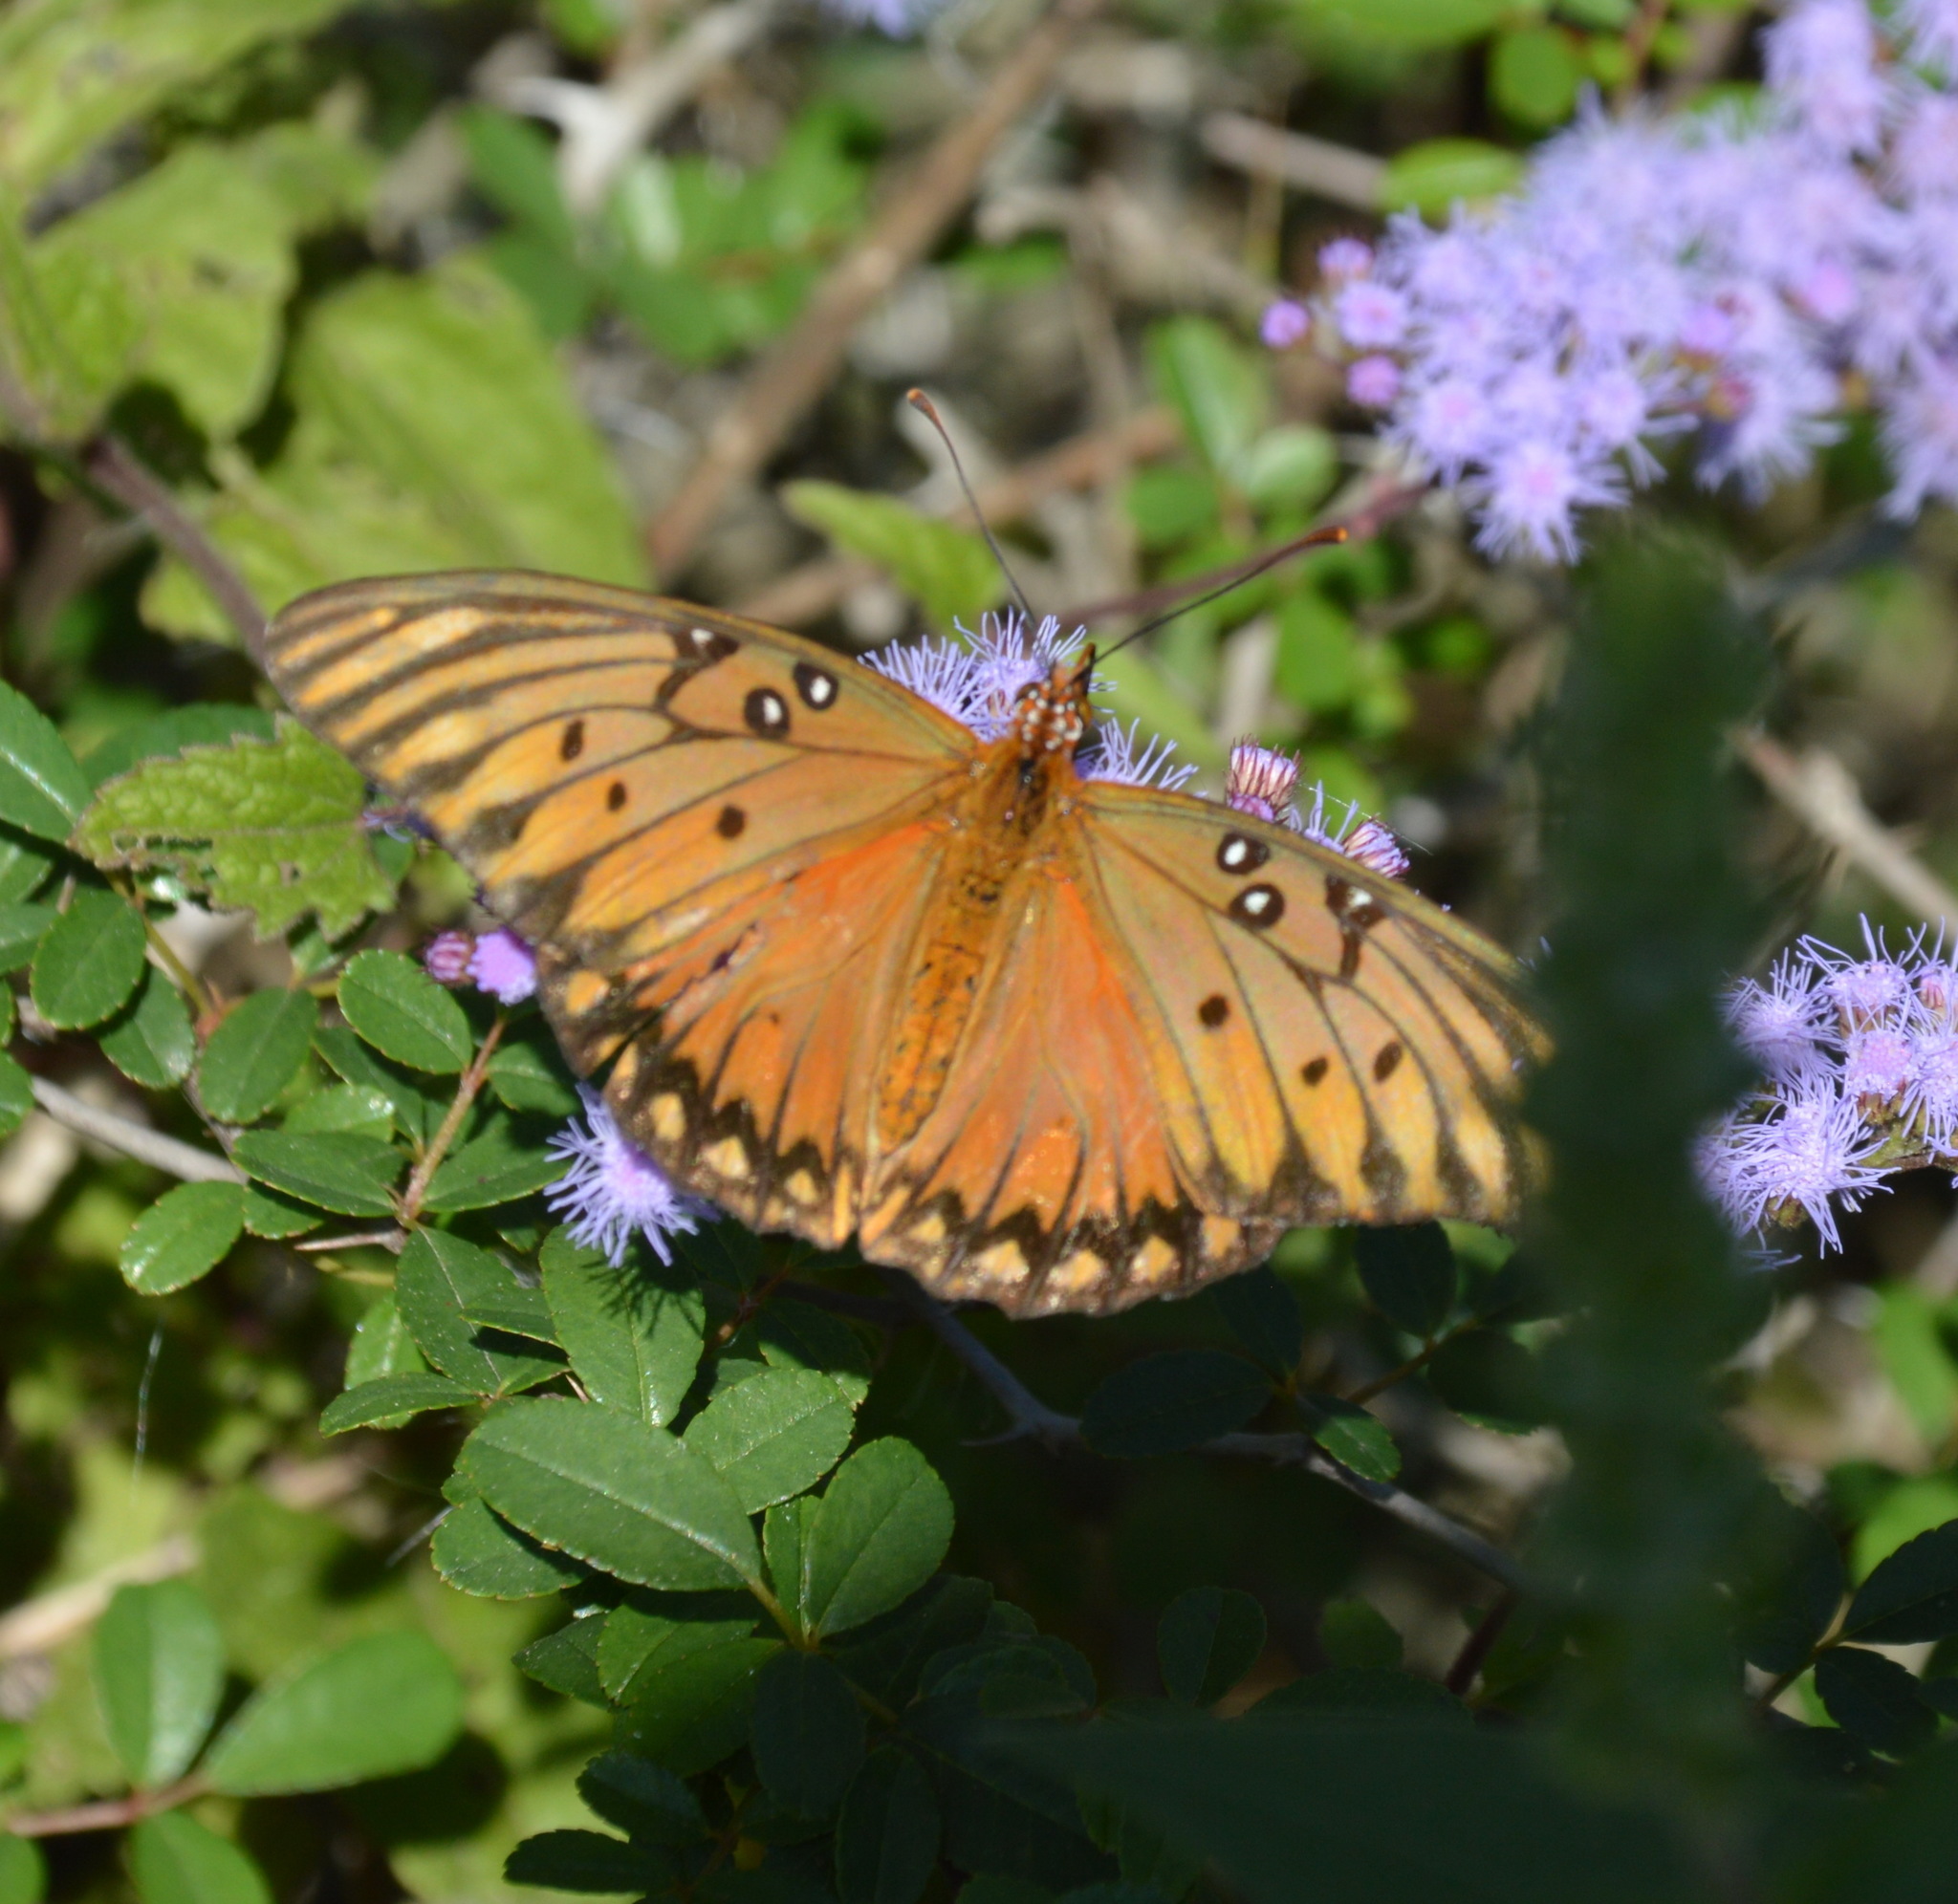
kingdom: Animalia
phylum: Arthropoda
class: Insecta
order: Lepidoptera
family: Nymphalidae
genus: Dione
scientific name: Dione vanillae
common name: Gulf fritillary
